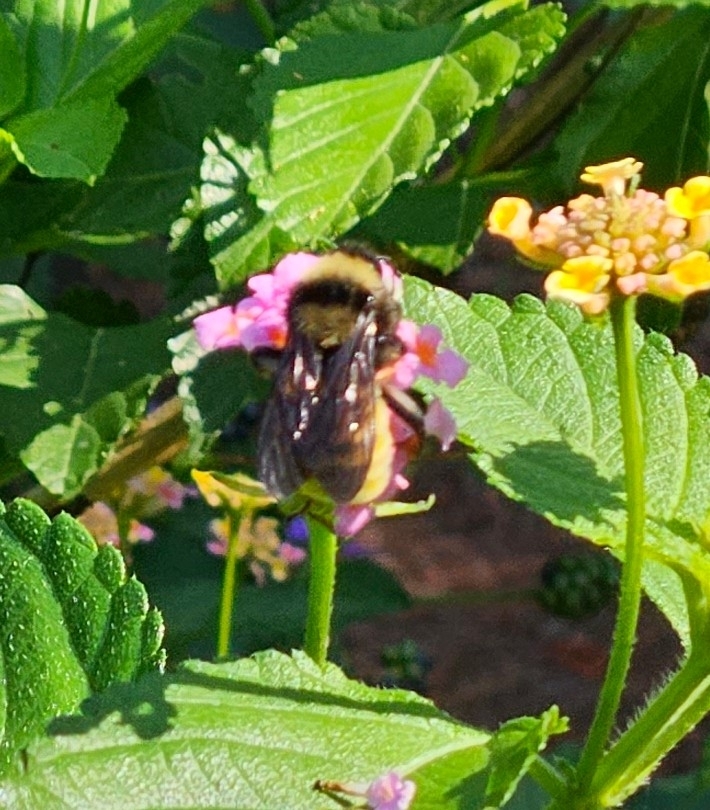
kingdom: Animalia
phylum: Arthropoda
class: Insecta
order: Hymenoptera
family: Apidae
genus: Bombus
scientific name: Bombus pensylvanicus
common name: Bumble bee
